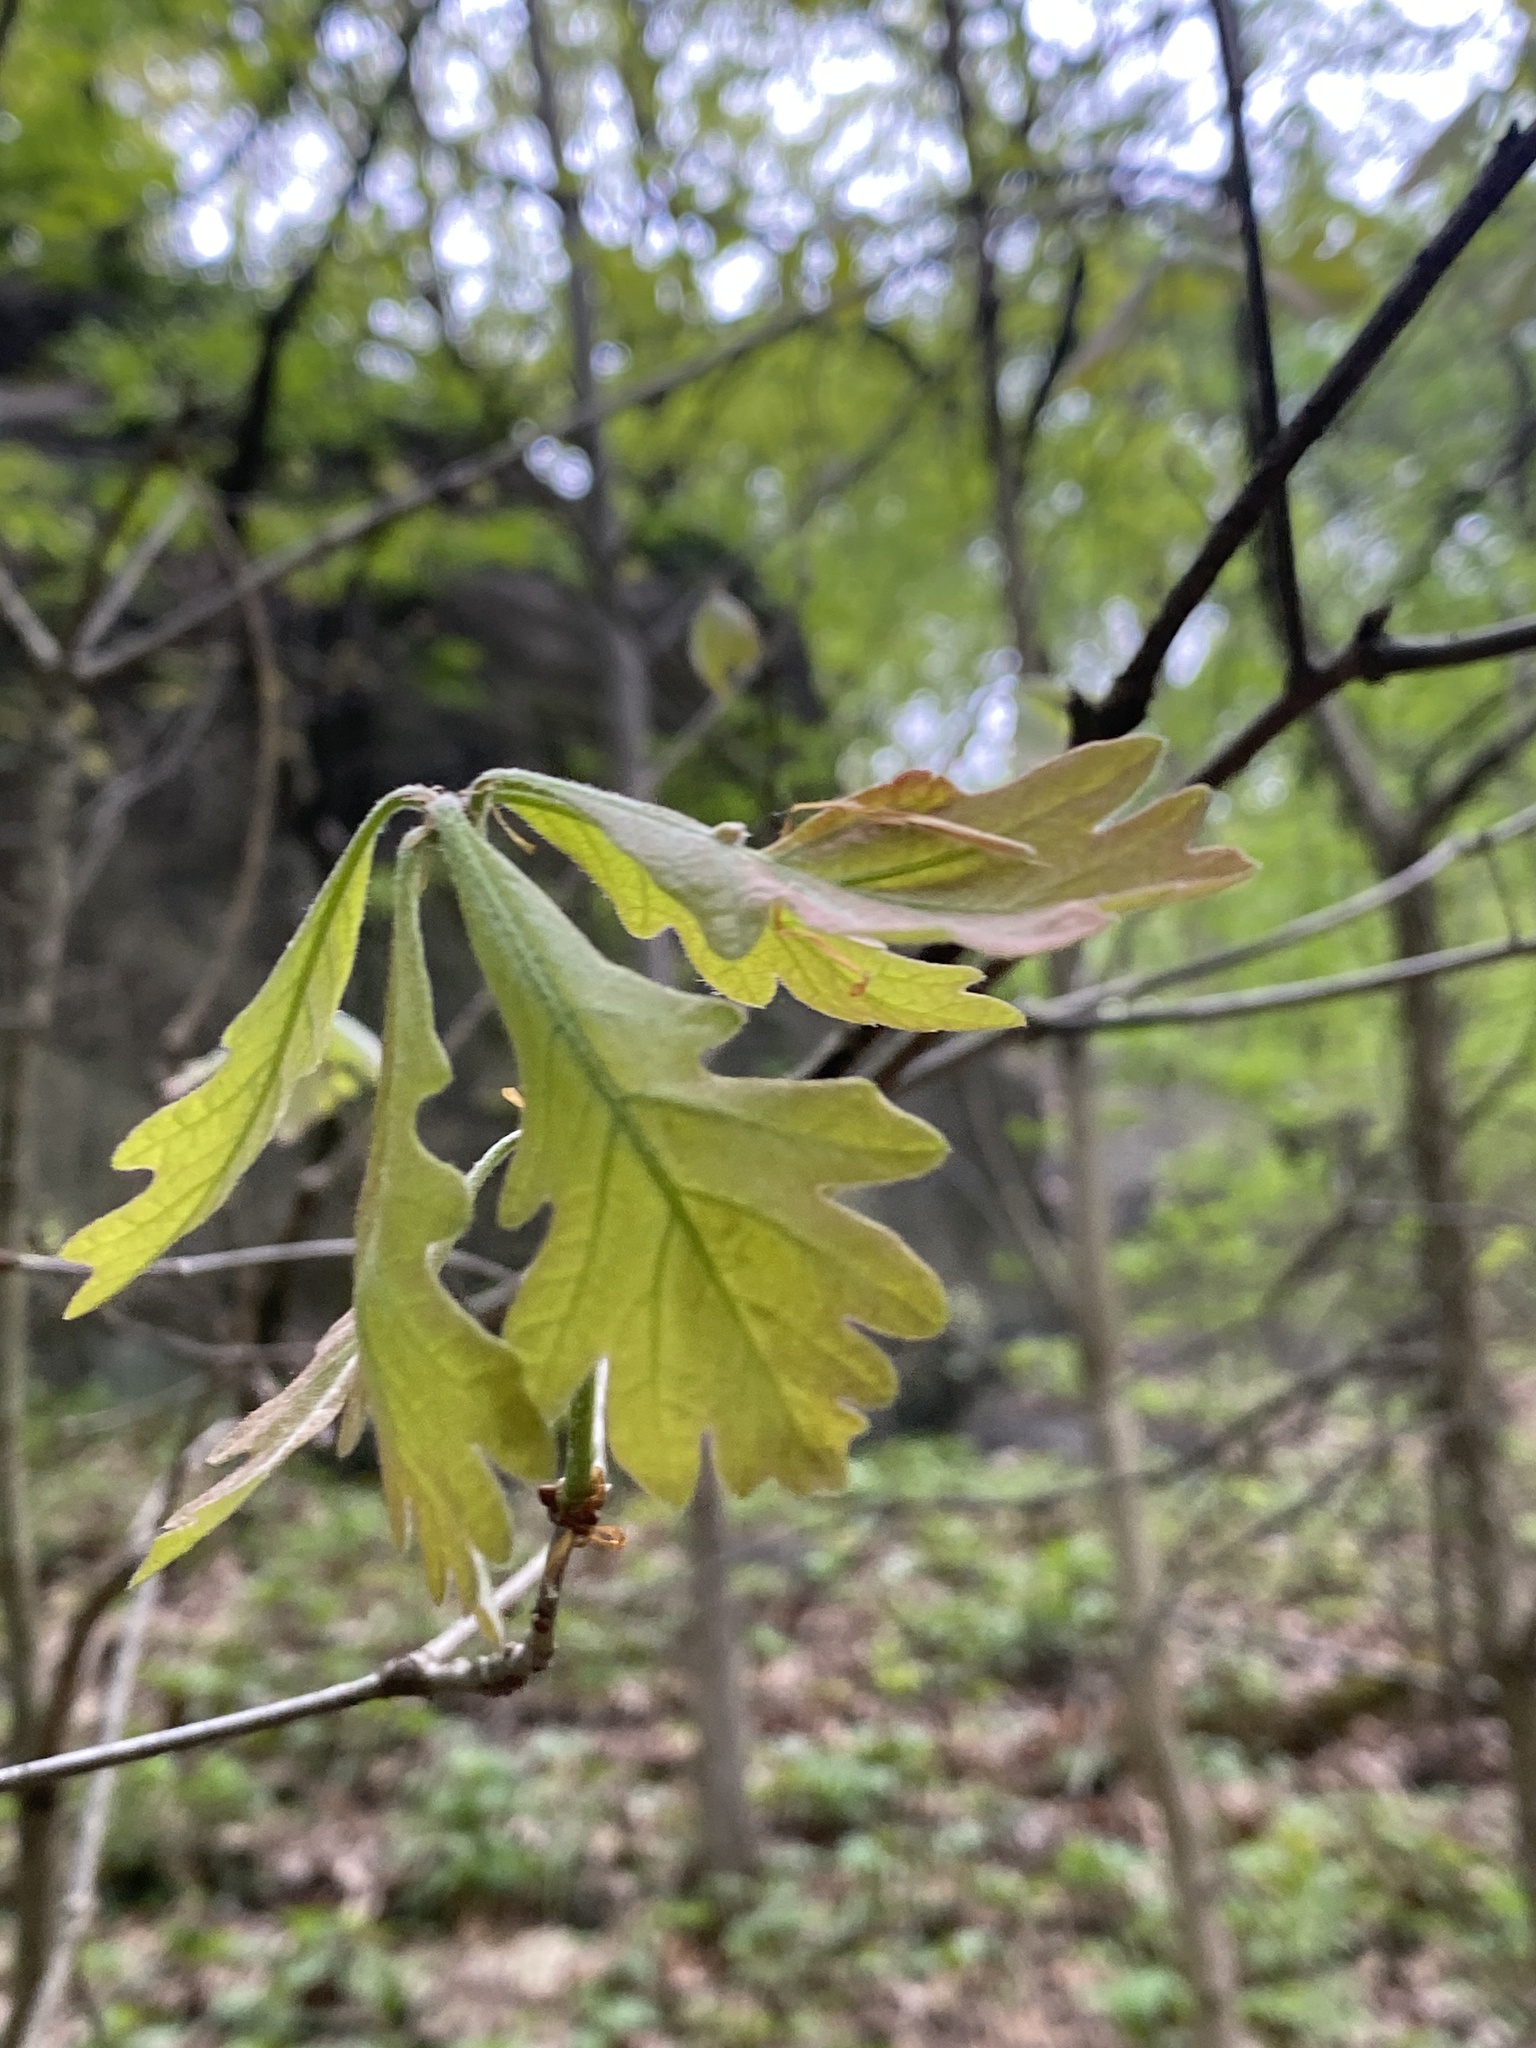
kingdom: Plantae
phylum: Tracheophyta
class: Magnoliopsida
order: Fagales
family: Fagaceae
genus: Quercus
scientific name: Quercus alba
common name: White oak
